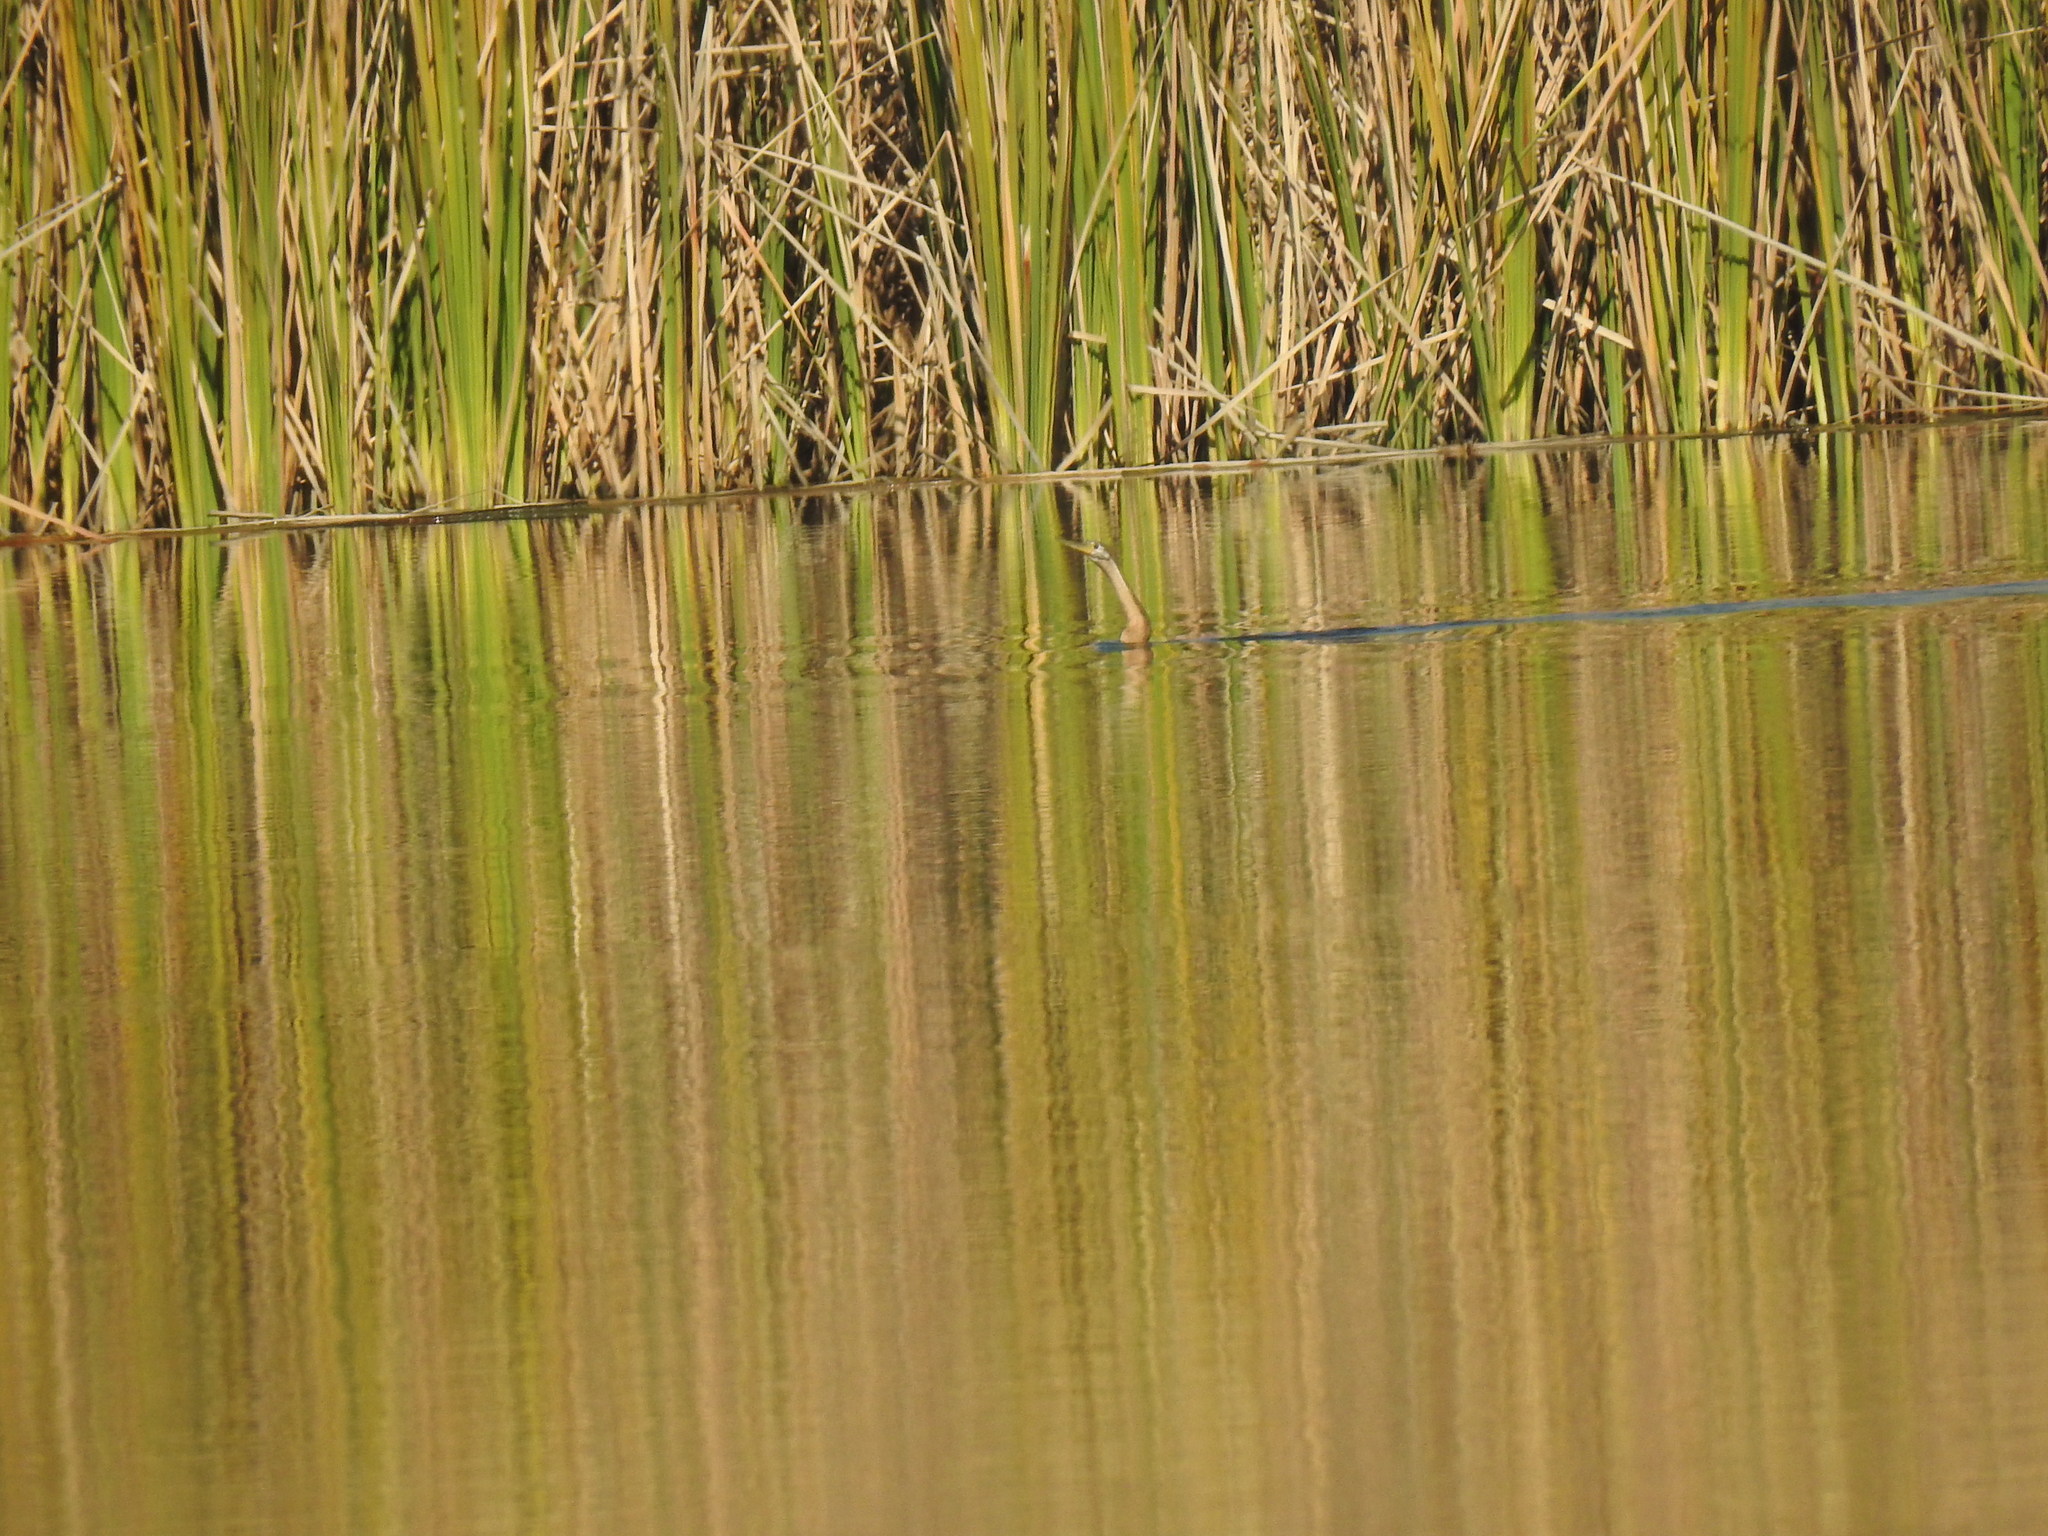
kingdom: Animalia
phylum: Chordata
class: Aves
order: Suliformes
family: Anhingidae
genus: Anhinga
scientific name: Anhinga rufa
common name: African darter
